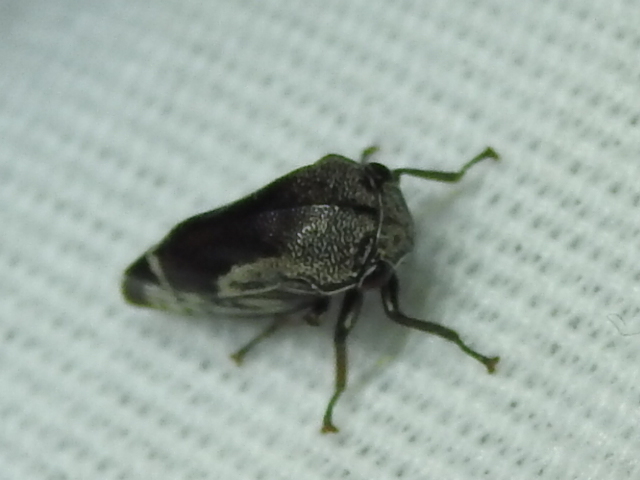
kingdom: Animalia
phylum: Arthropoda
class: Insecta
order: Hemiptera
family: Membracidae
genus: Xantholobus
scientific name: Xantholobus nigrocincta
